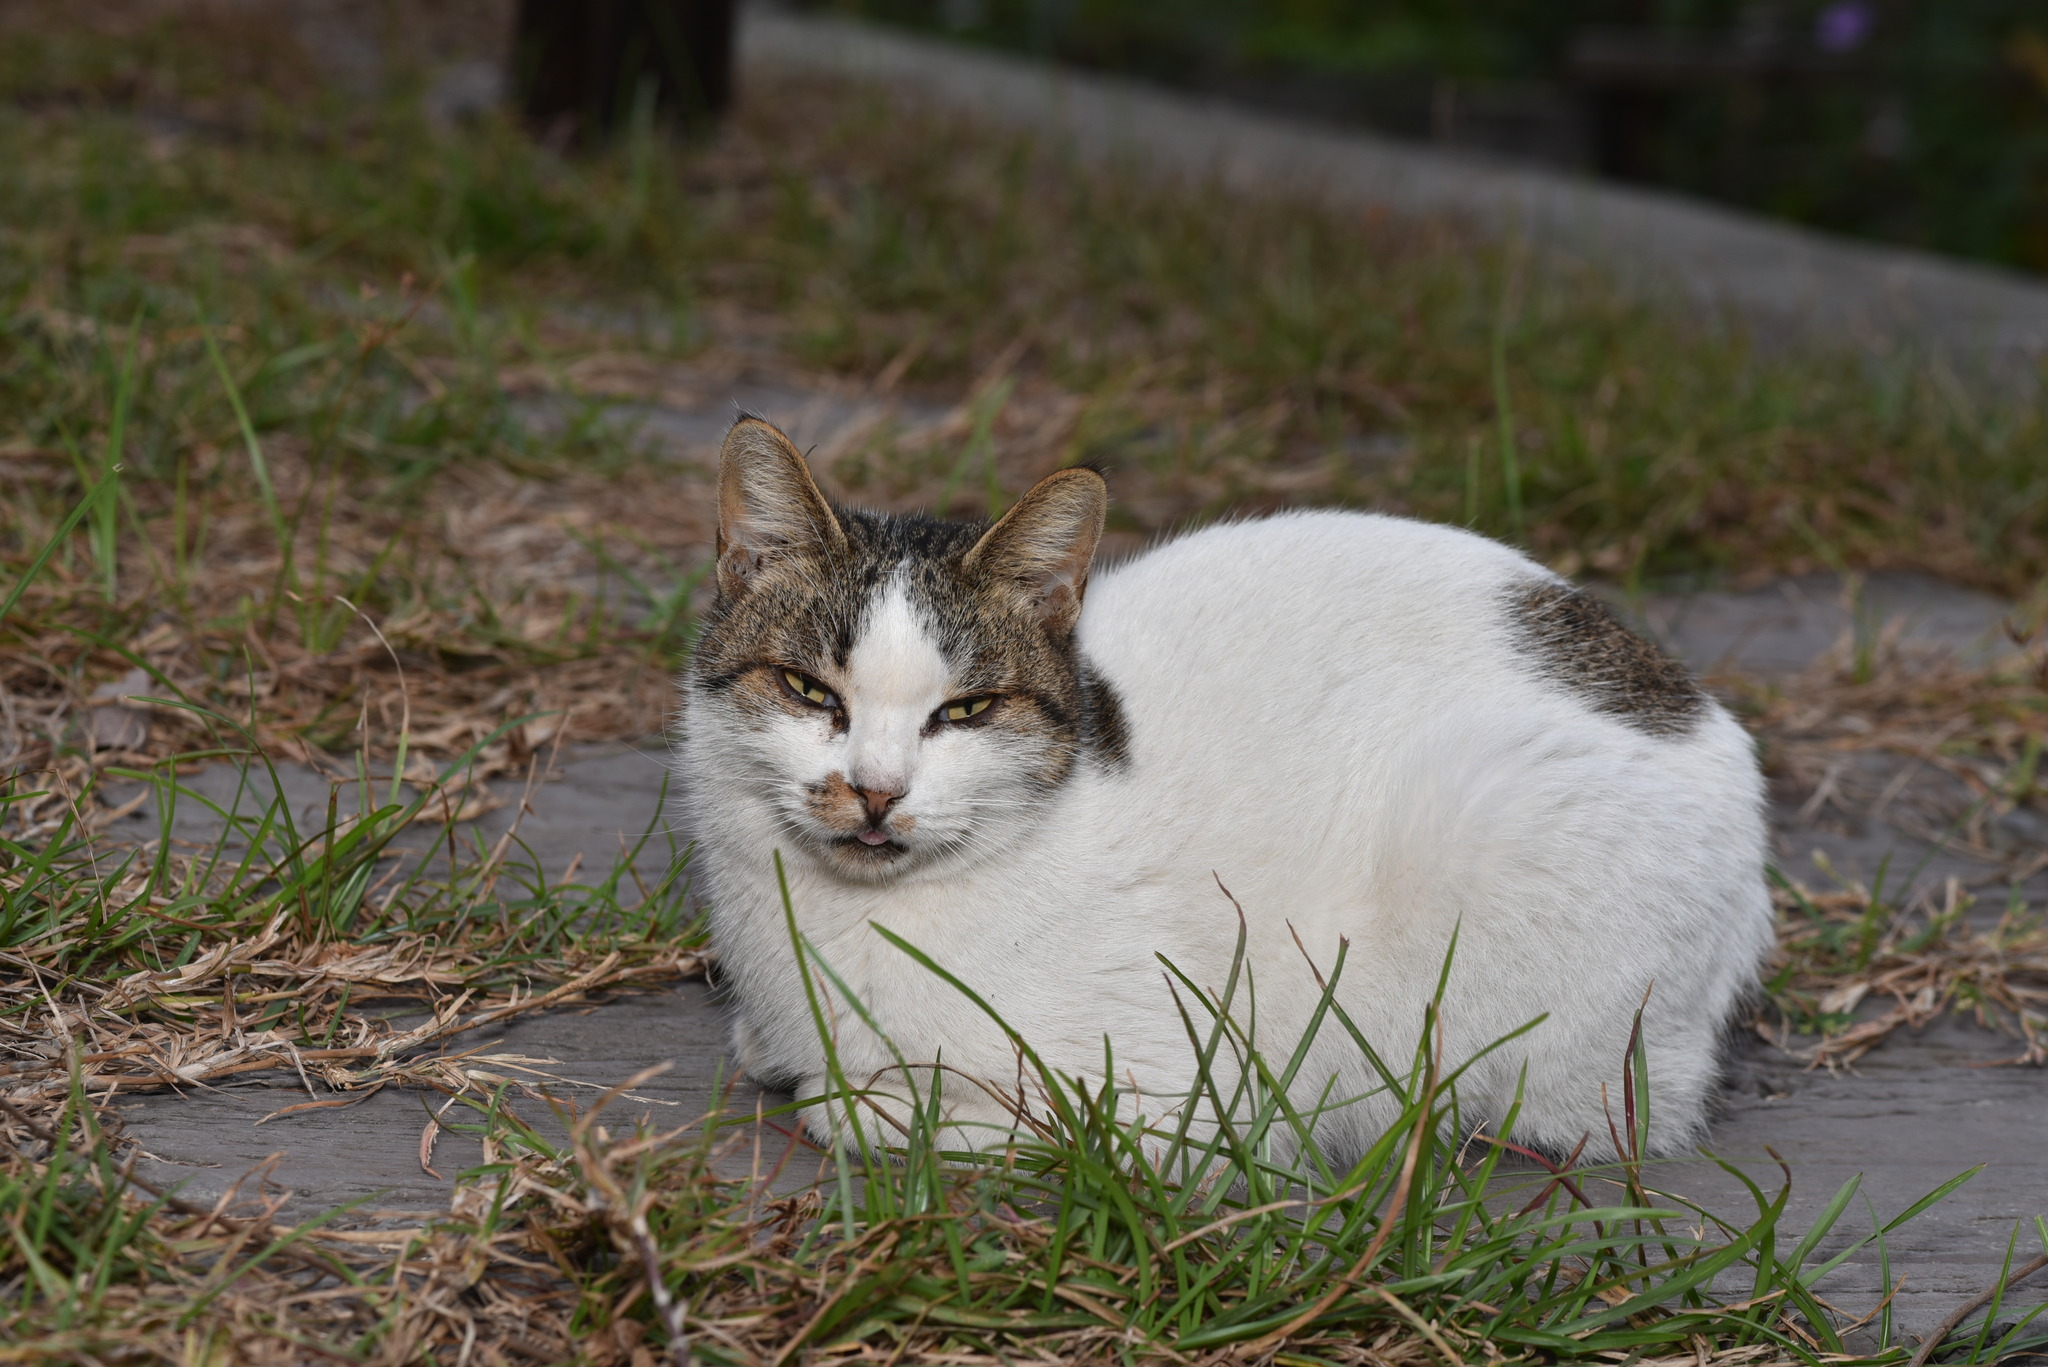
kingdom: Animalia
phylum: Chordata
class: Mammalia
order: Carnivora
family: Felidae
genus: Felis
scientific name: Felis catus
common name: Domestic cat
